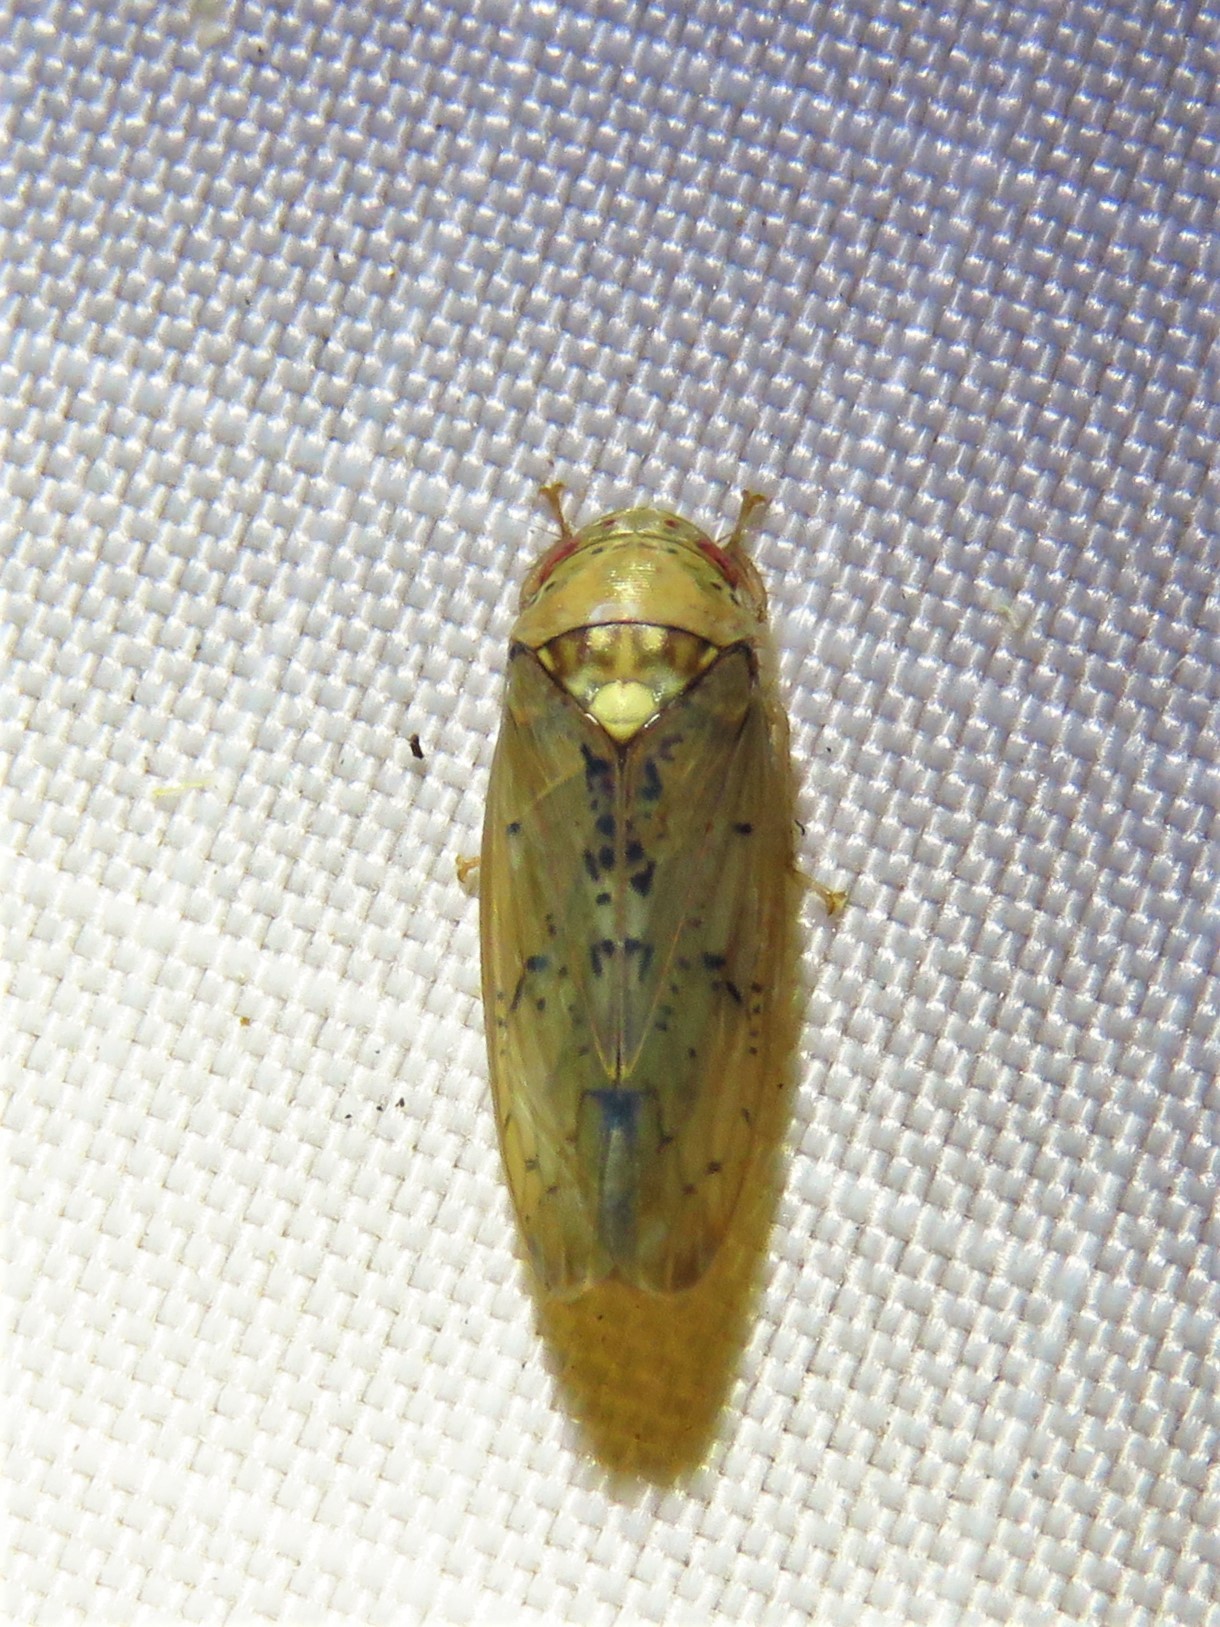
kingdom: Animalia
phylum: Arthropoda
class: Insecta
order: Hemiptera
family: Cicadellidae
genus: Ponana
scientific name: Ponana quadralaba
